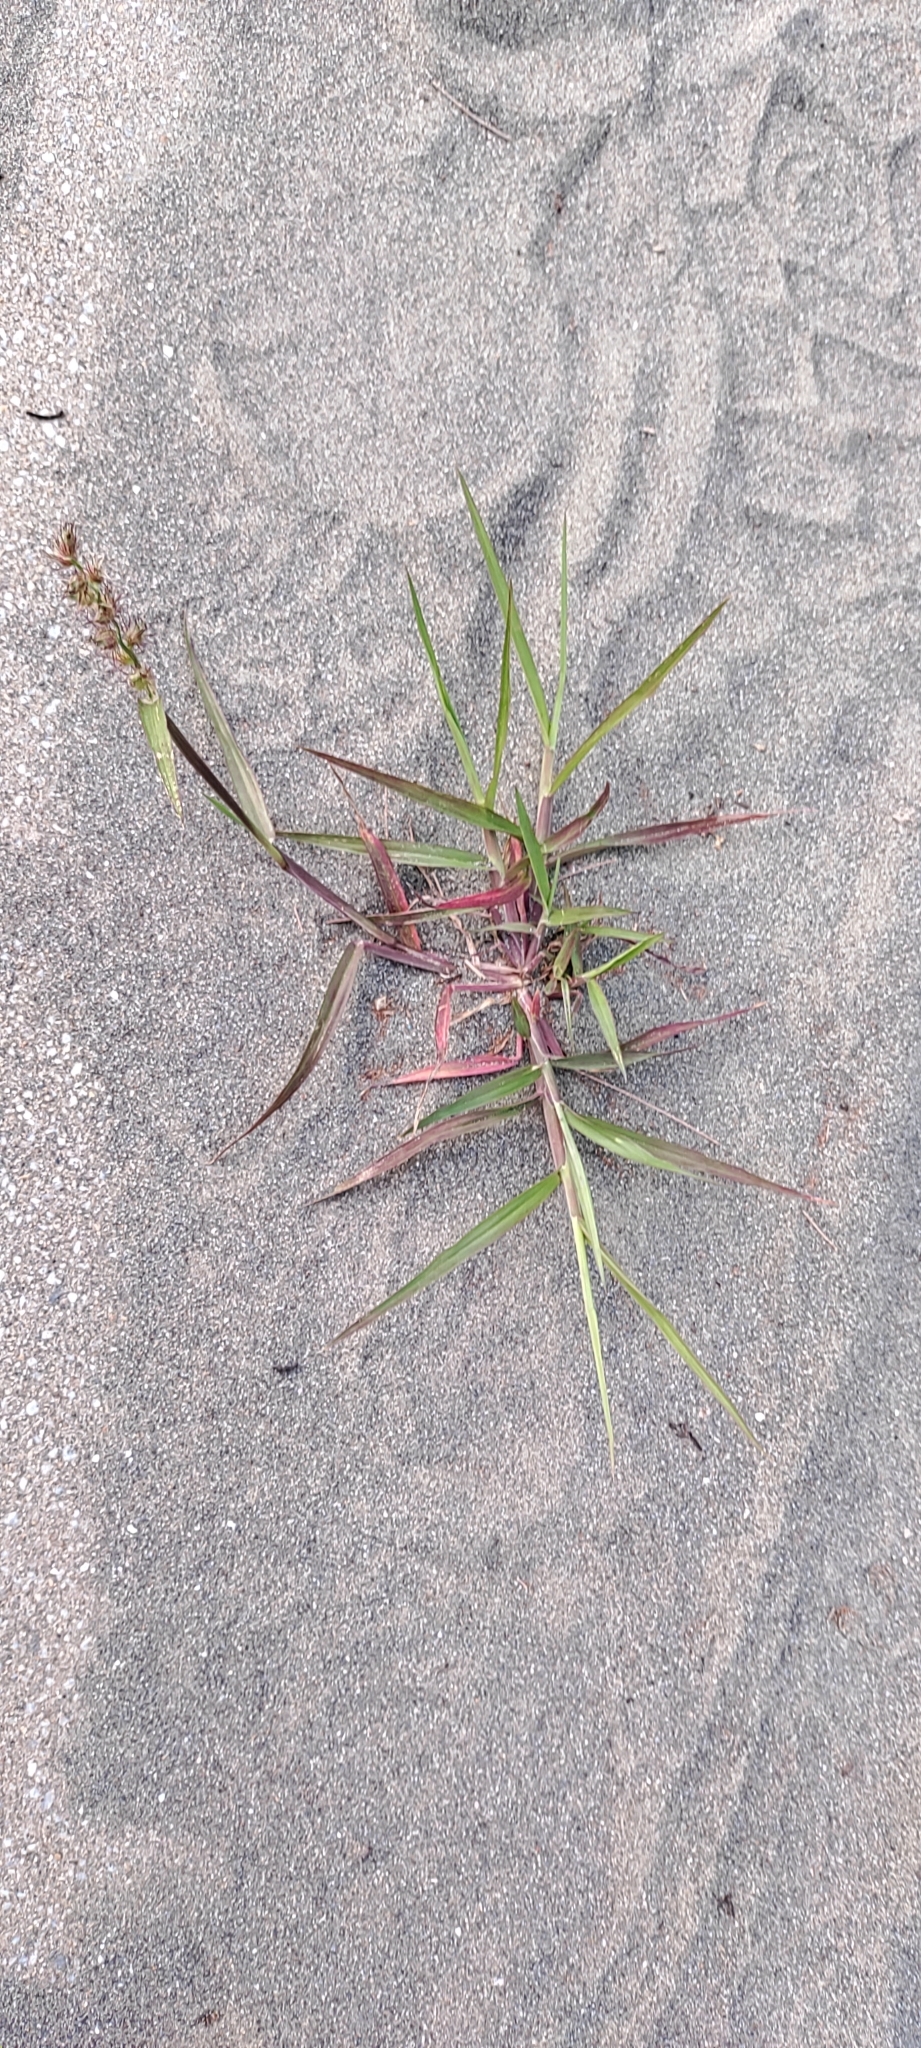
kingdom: Plantae
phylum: Tracheophyta
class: Liliopsida
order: Poales
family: Poaceae
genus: Cenchrus
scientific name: Cenchrus echinatus
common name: Southern sandbur
